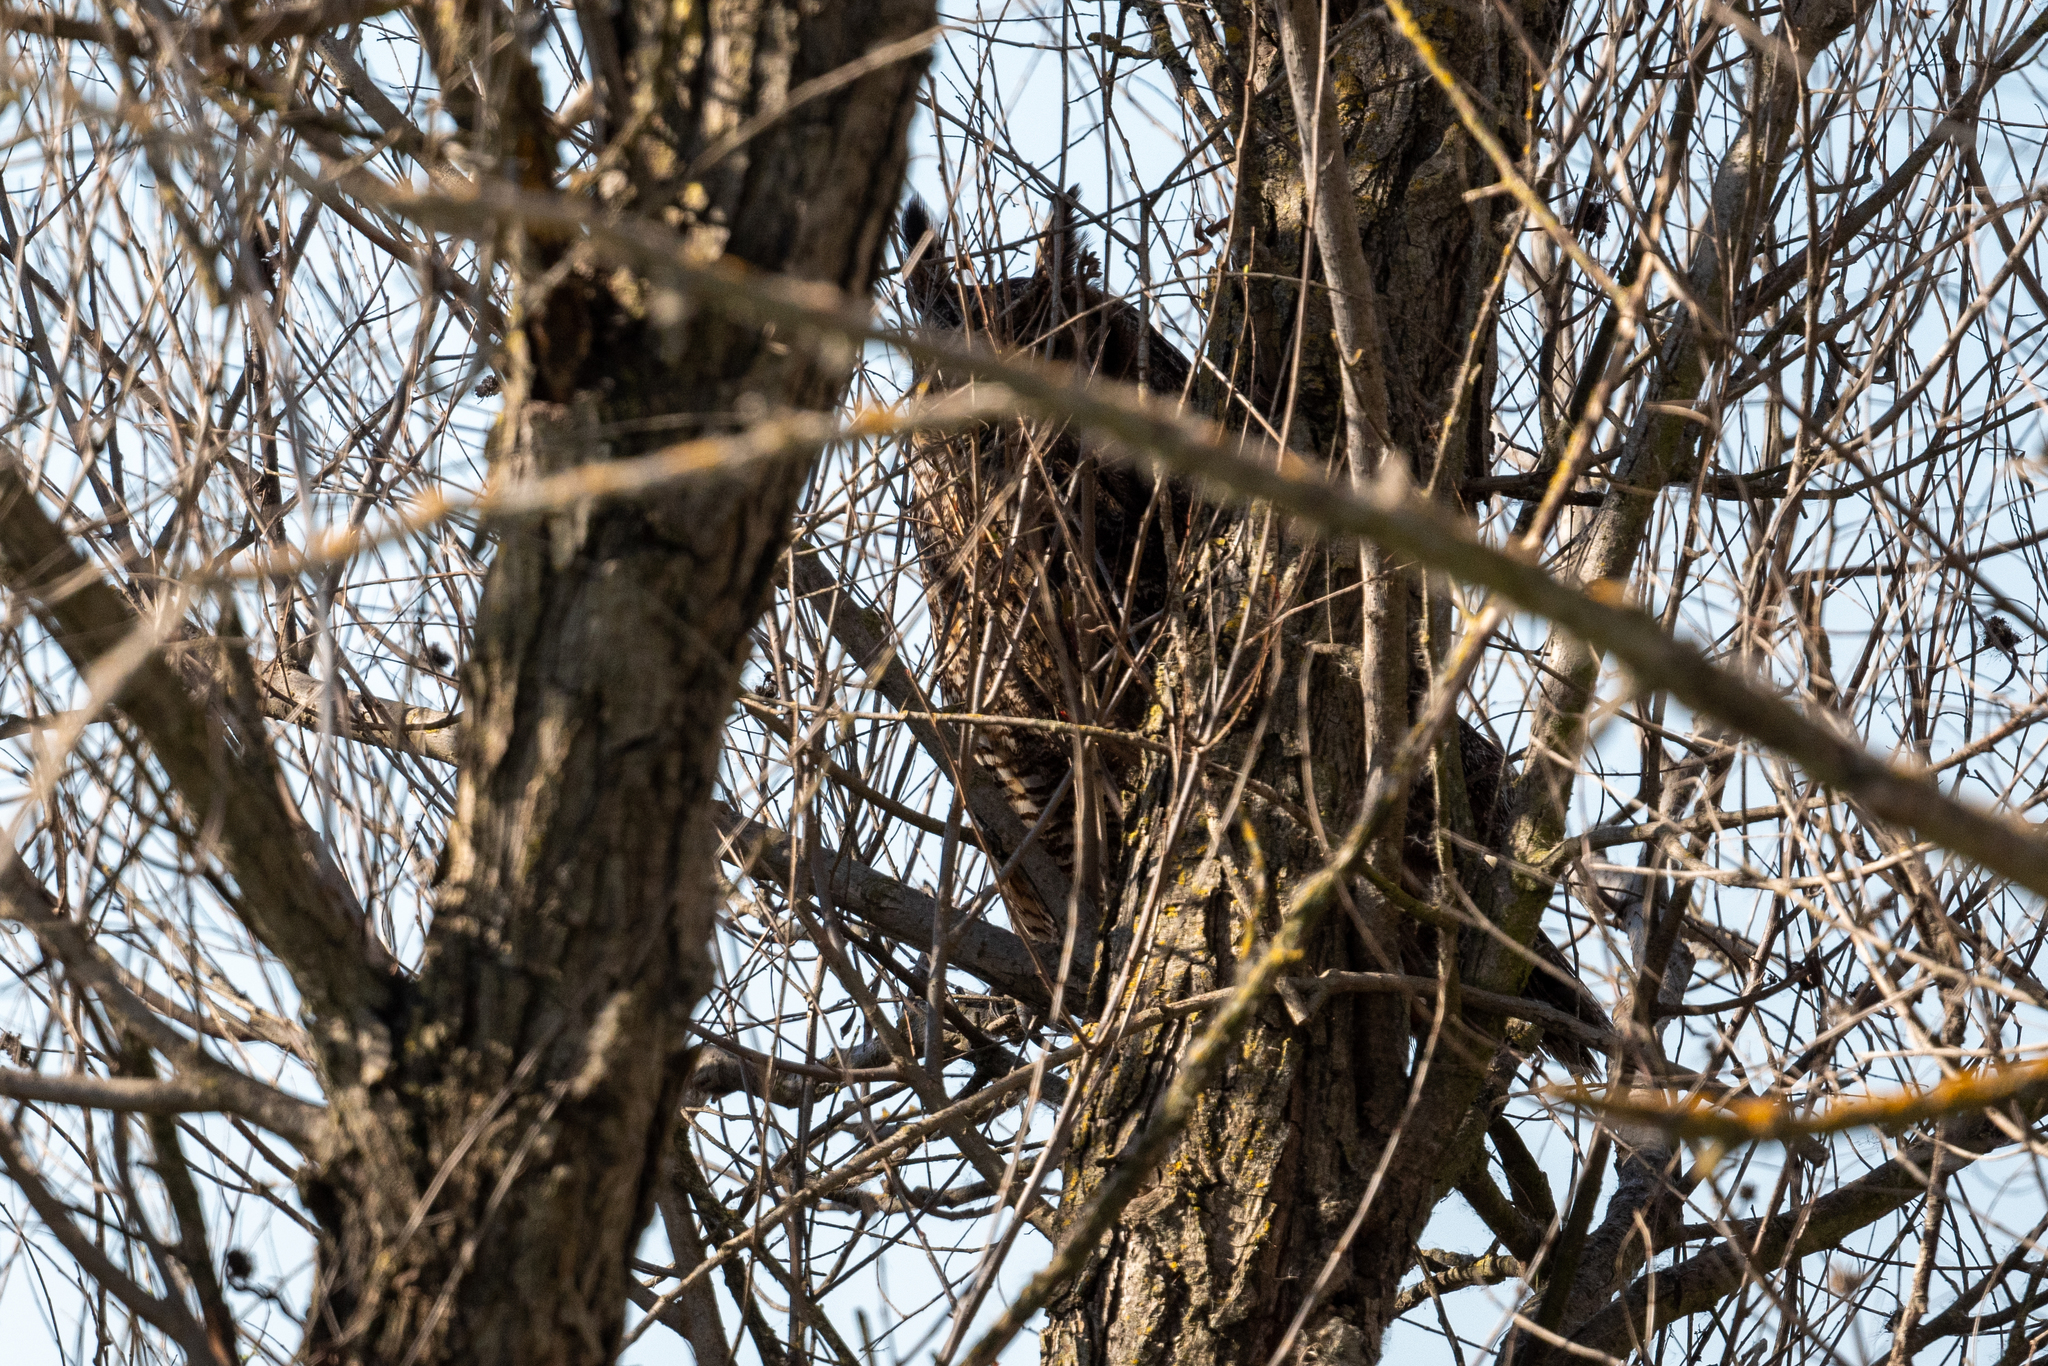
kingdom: Animalia
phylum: Chordata
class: Aves
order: Strigiformes
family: Strigidae
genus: Bubo
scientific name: Bubo virginianus
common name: Great horned owl
